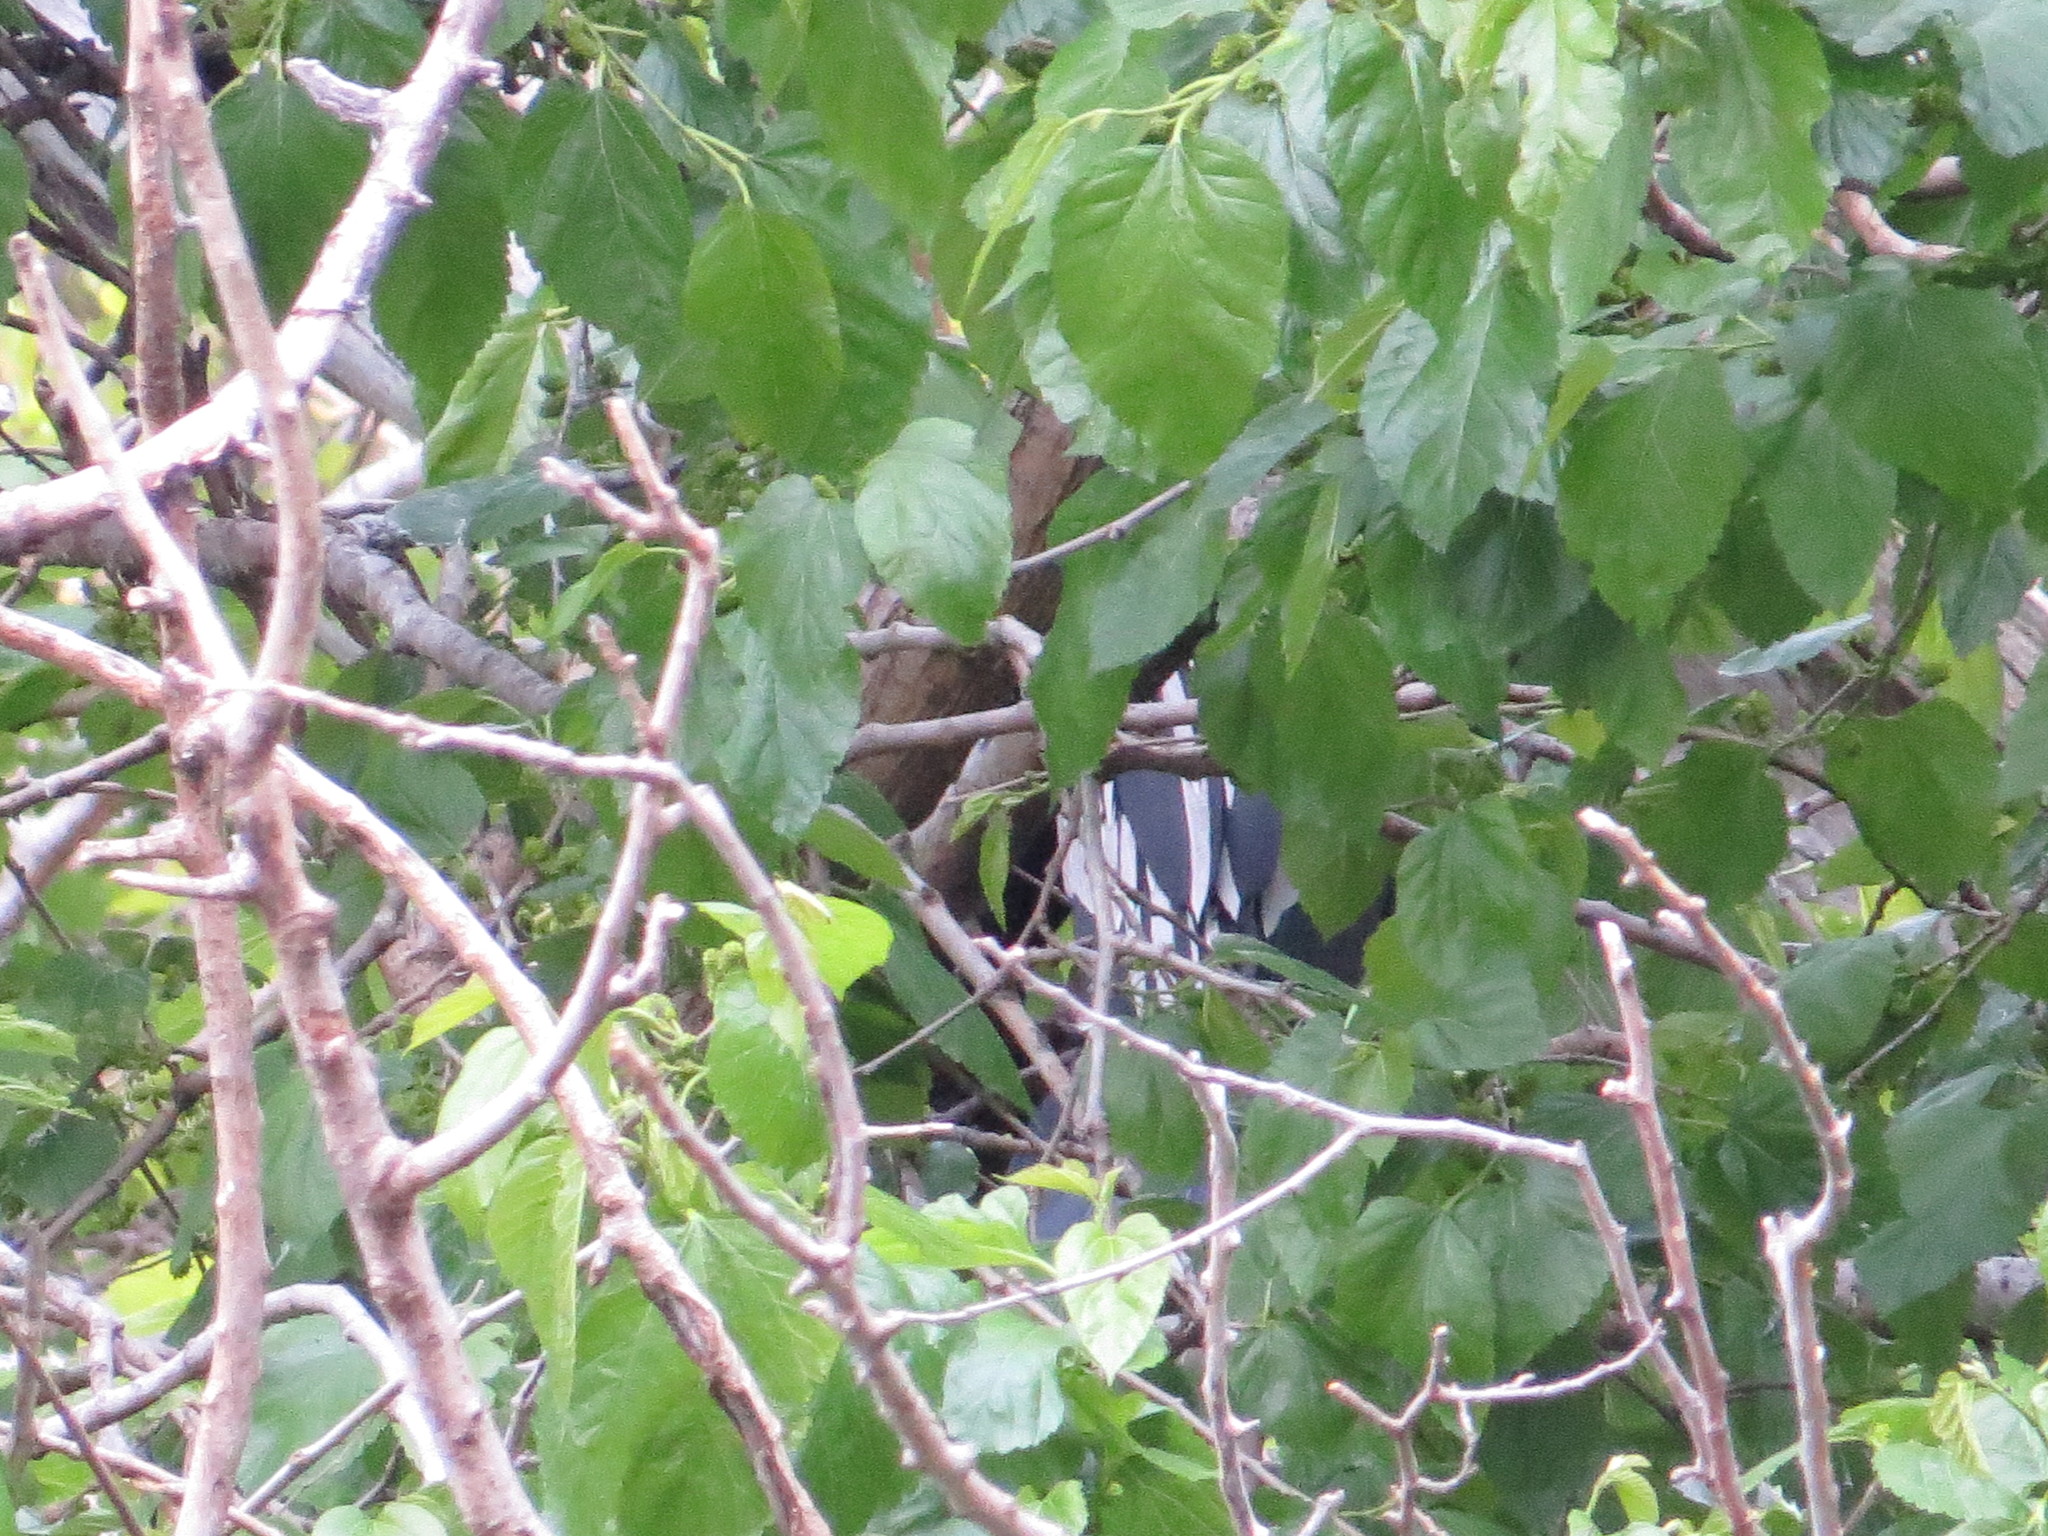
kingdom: Animalia
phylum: Chordata
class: Aves
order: Suliformes
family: Anhingidae
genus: Anhinga
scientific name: Anhinga anhinga
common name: Anhinga
